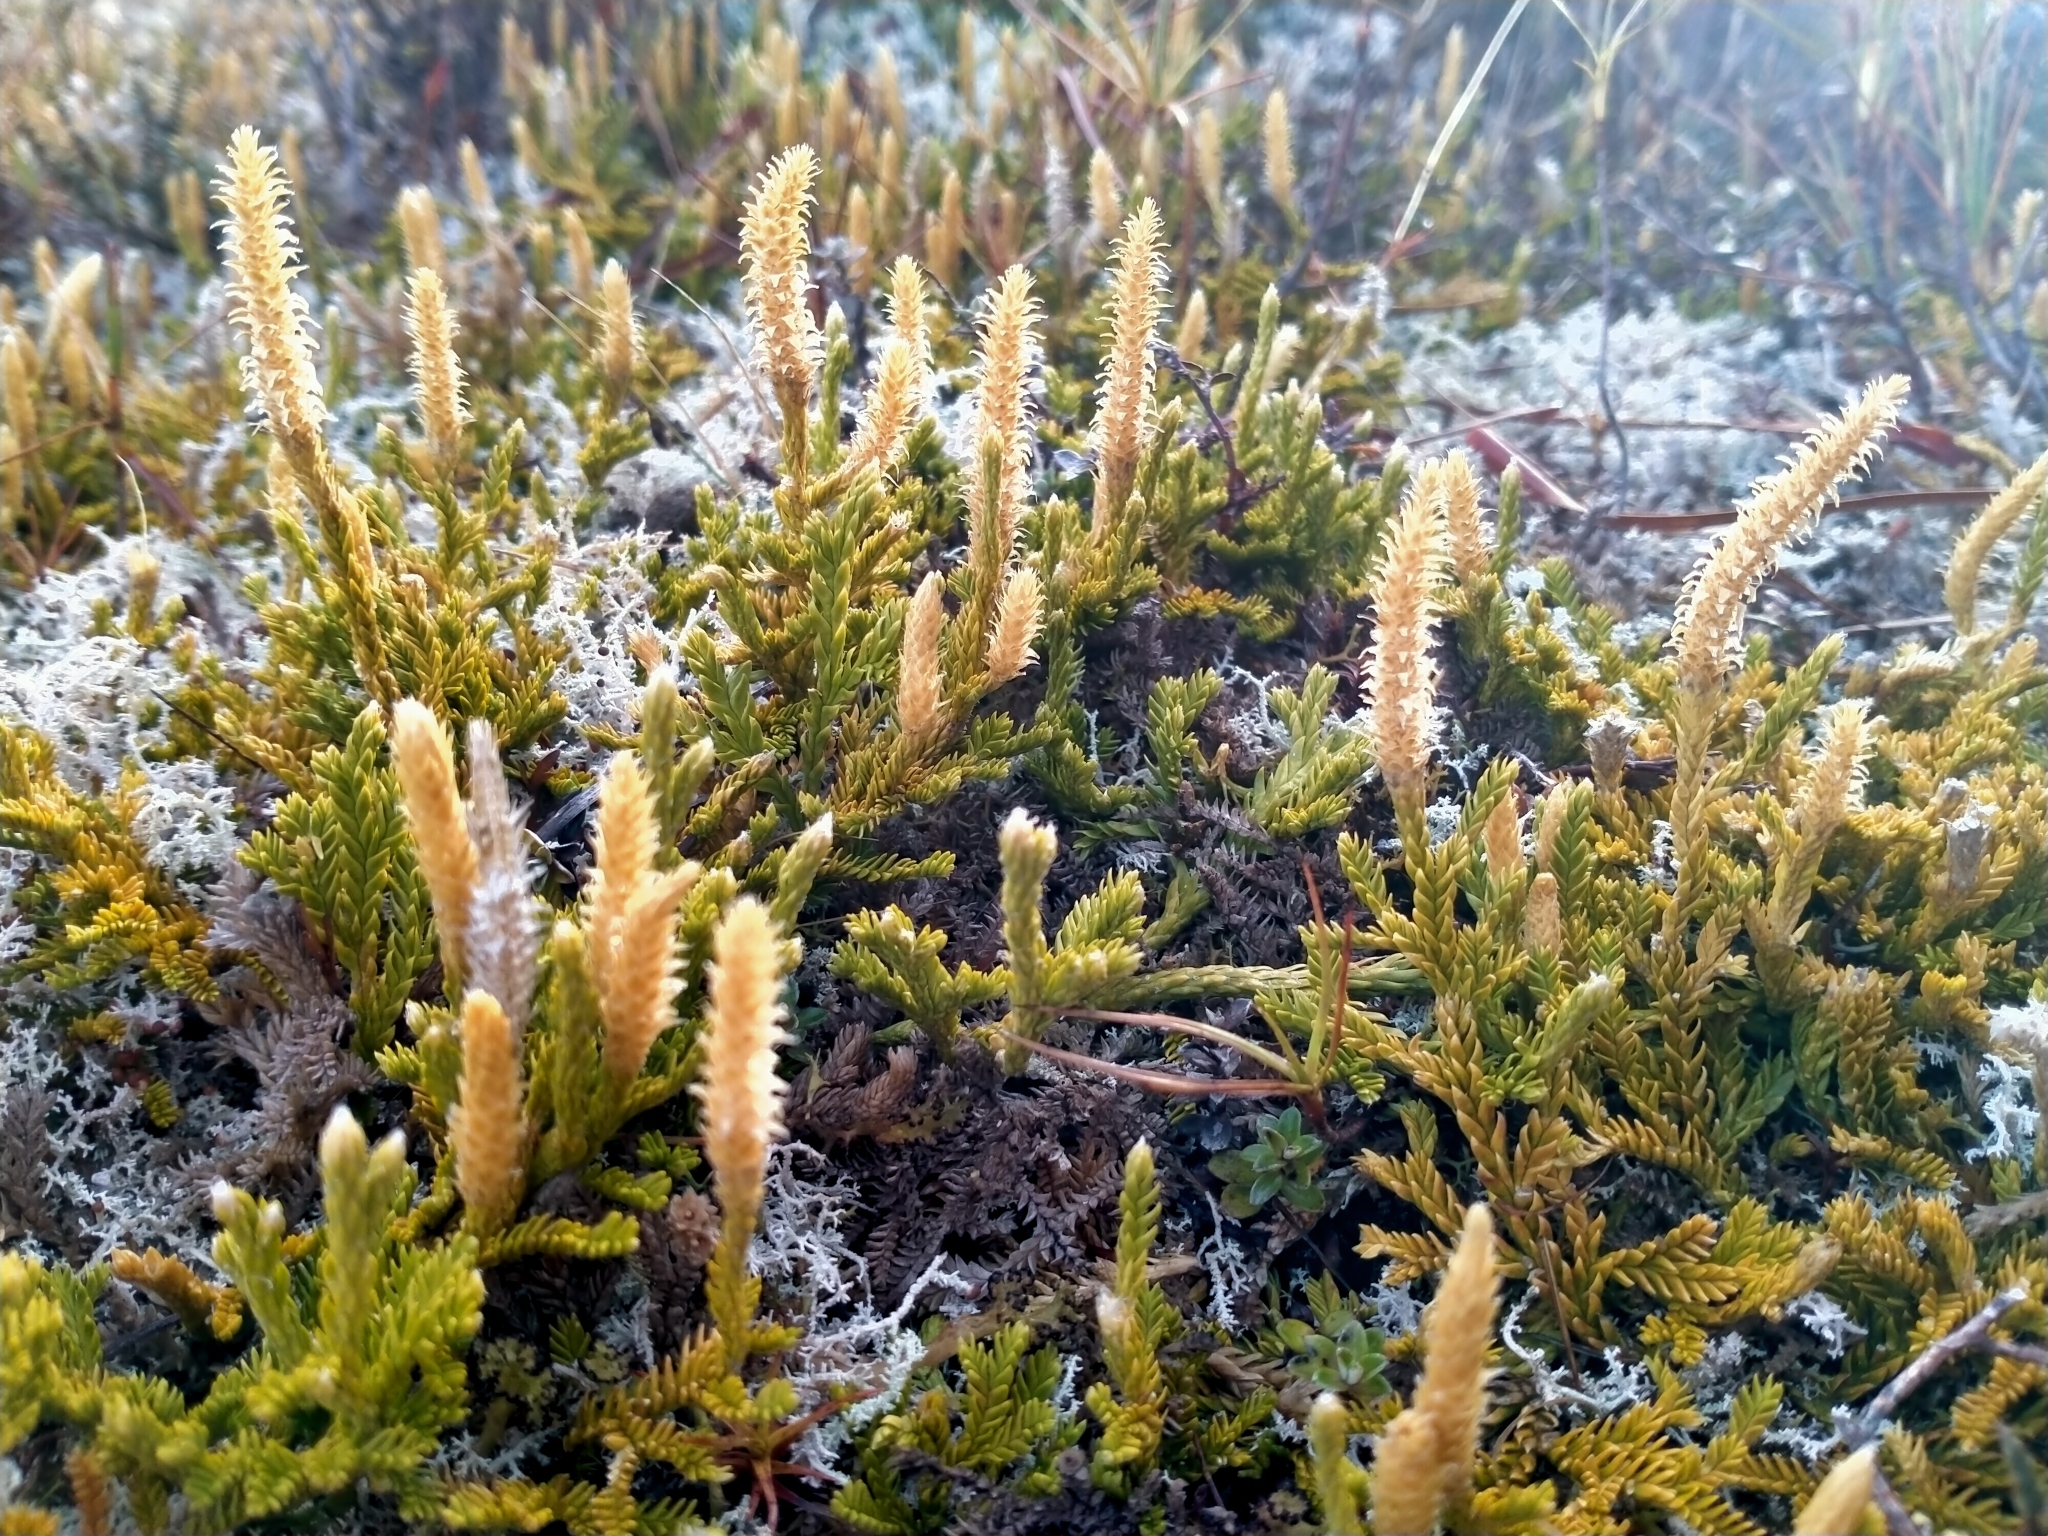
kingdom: Plantae
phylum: Tracheophyta
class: Lycopodiopsida
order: Lycopodiales
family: Lycopodiaceae
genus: Diphasium
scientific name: Diphasium scariosum
